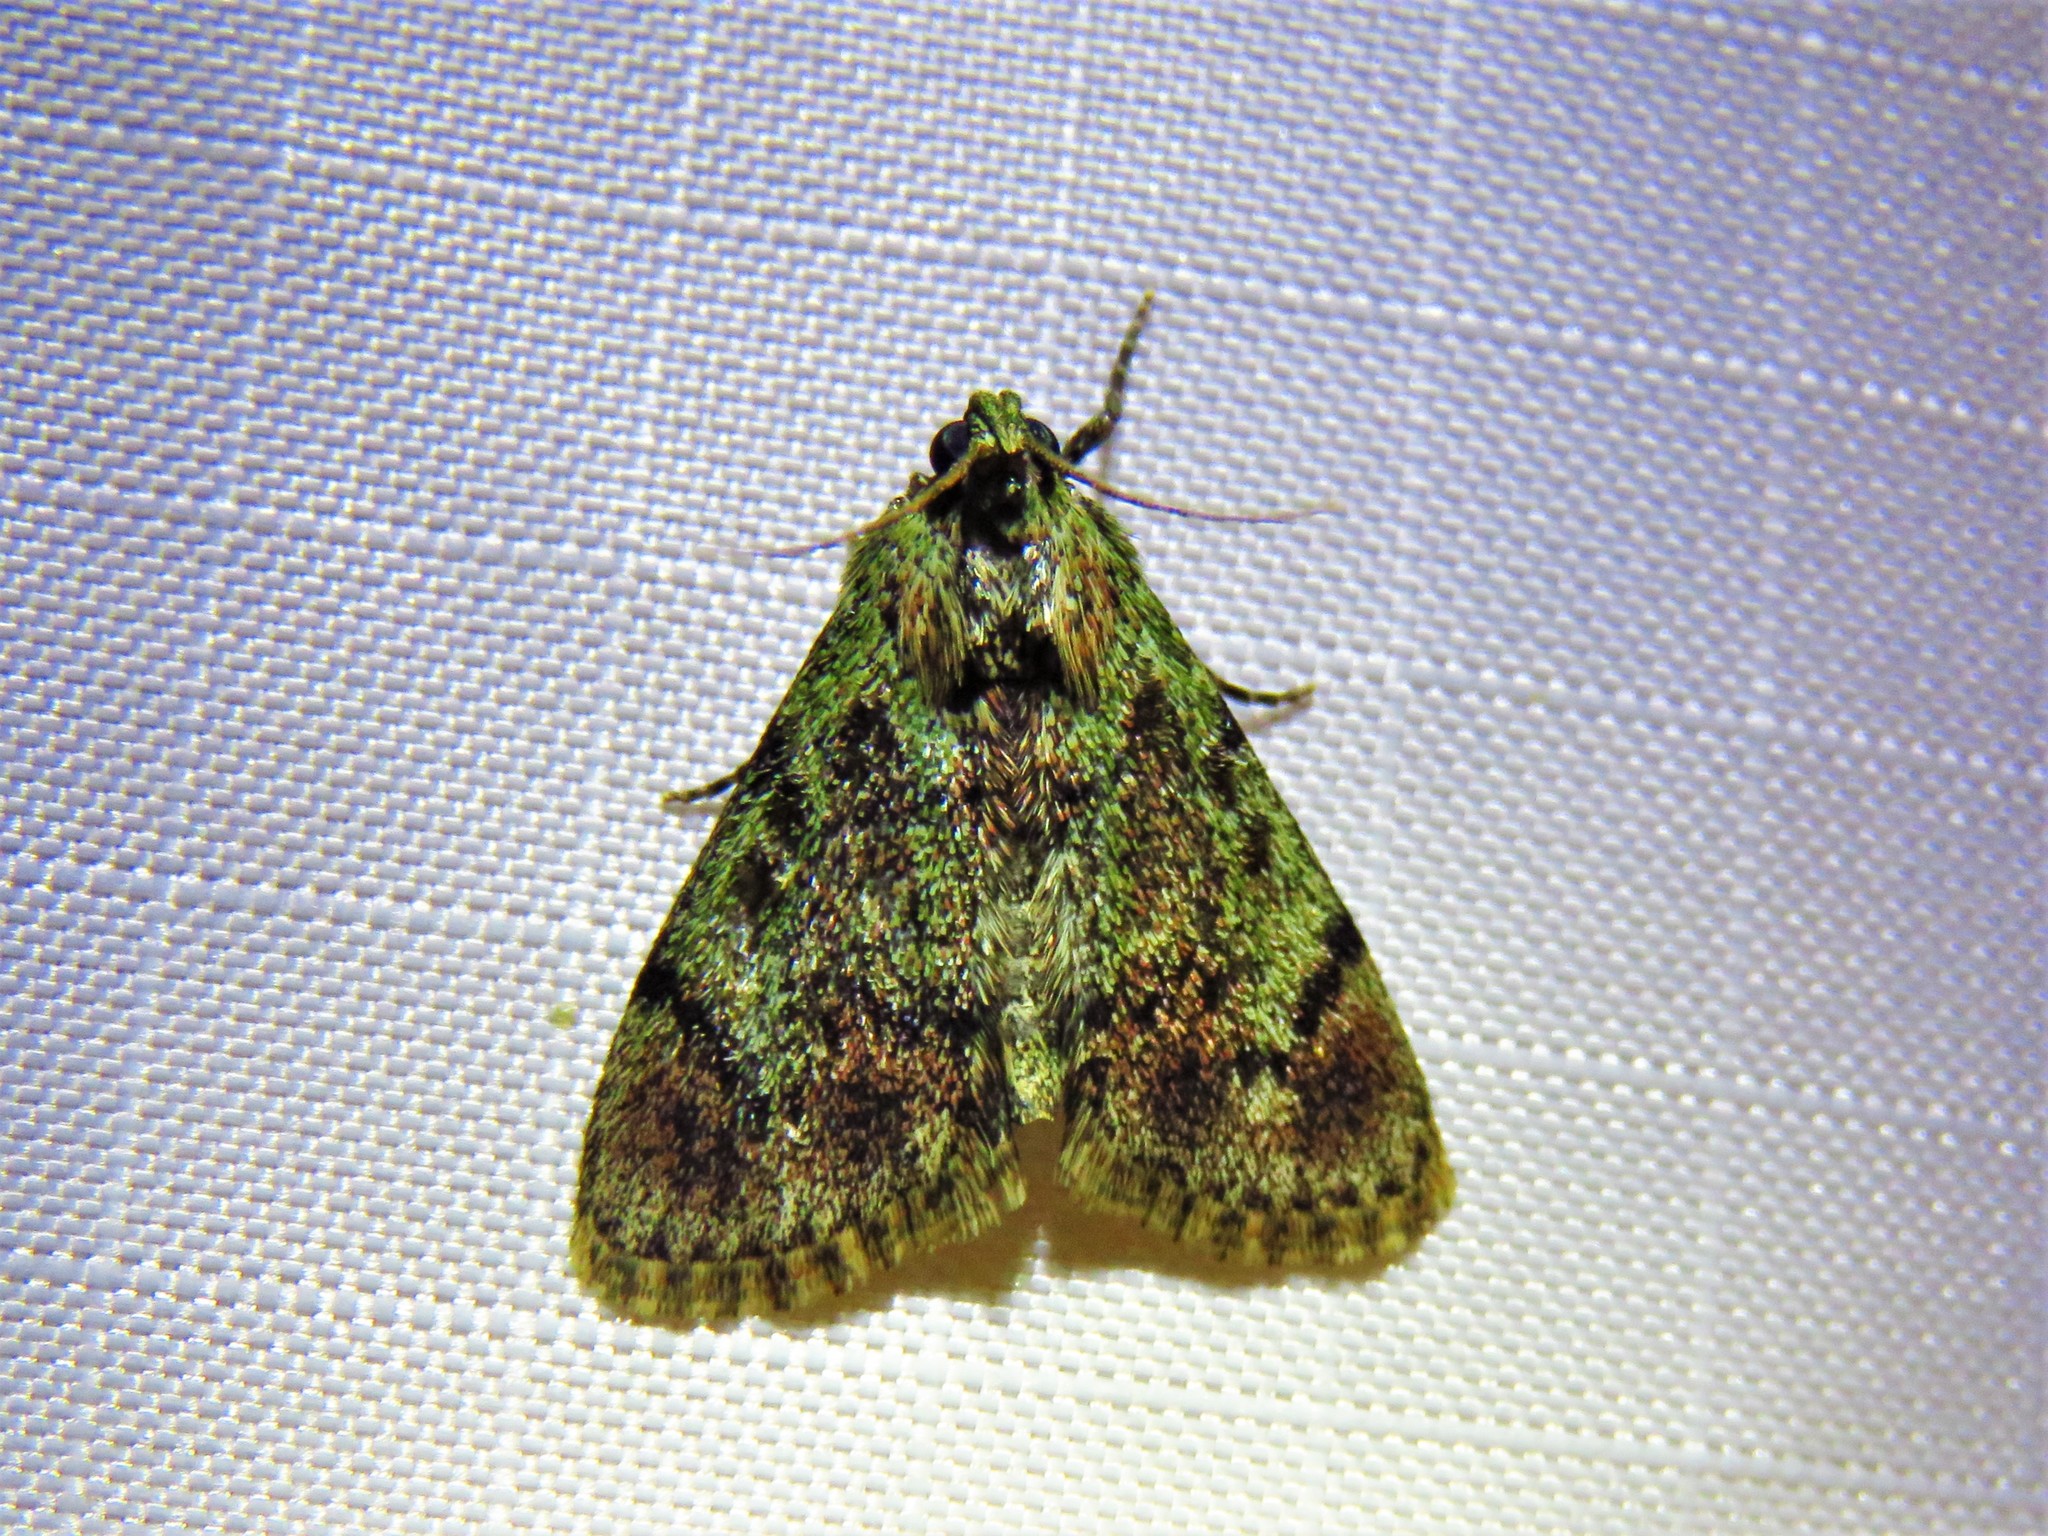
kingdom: Animalia
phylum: Arthropoda
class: Insecta
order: Lepidoptera
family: Pyralidae
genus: Epipaschia
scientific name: Epipaschia superatalis
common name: Dimorphic macalla moth
